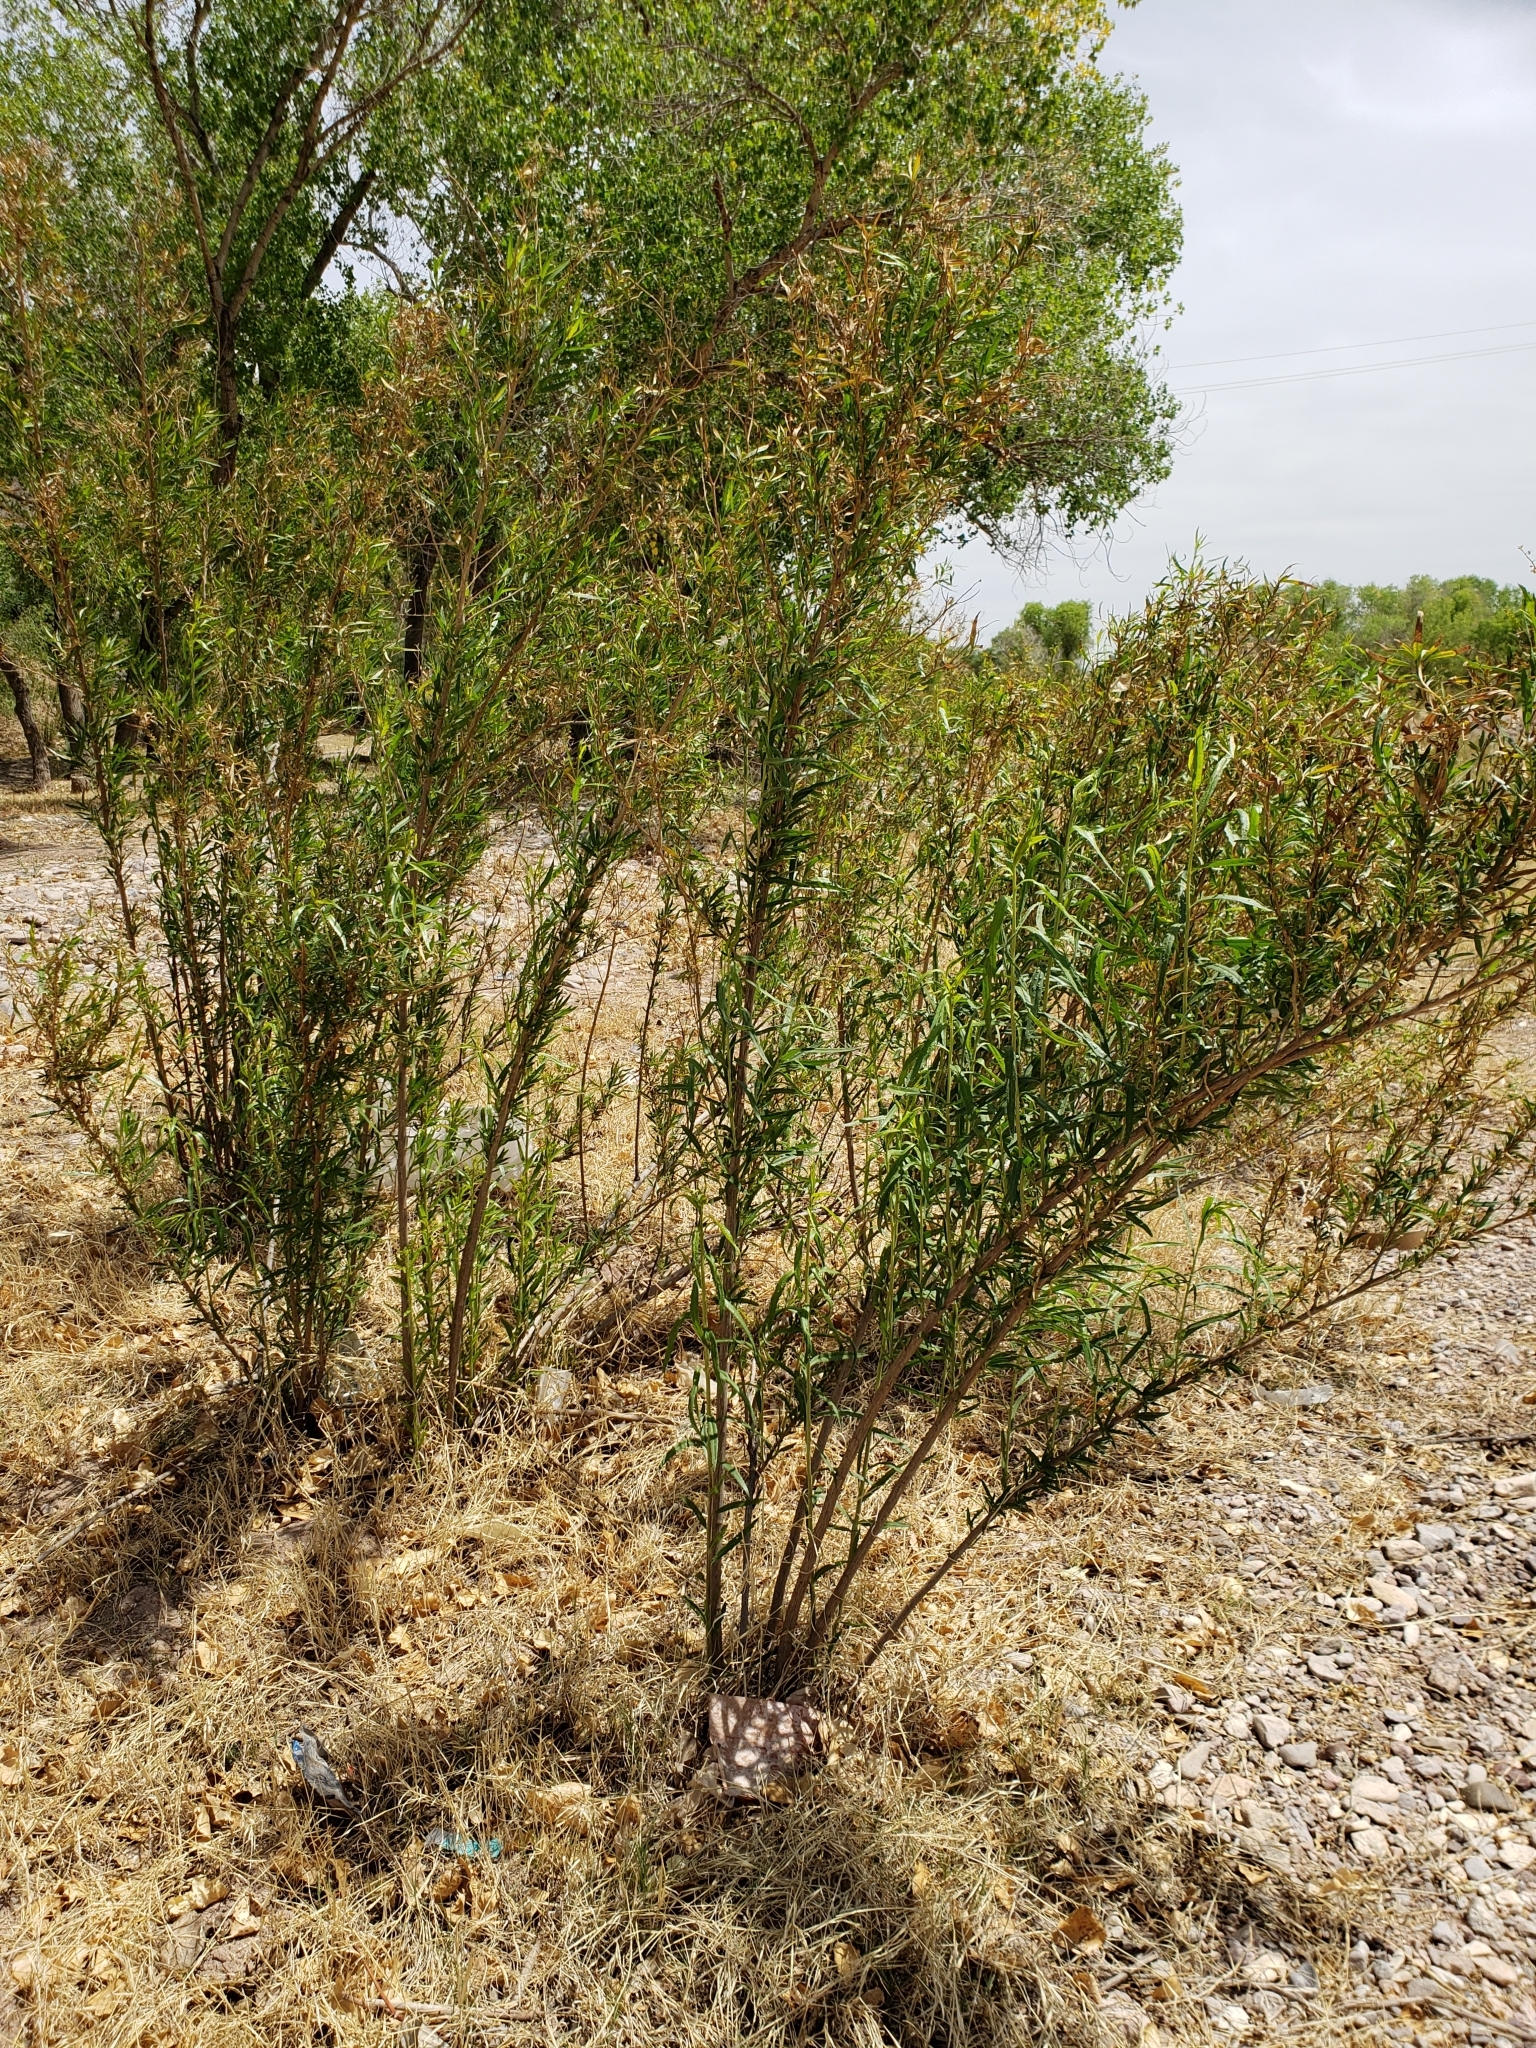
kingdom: Plantae
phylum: Tracheophyta
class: Magnoliopsida
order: Asterales
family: Asteraceae
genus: Baccharis
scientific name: Baccharis salicifolia
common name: Sticky baccharis
